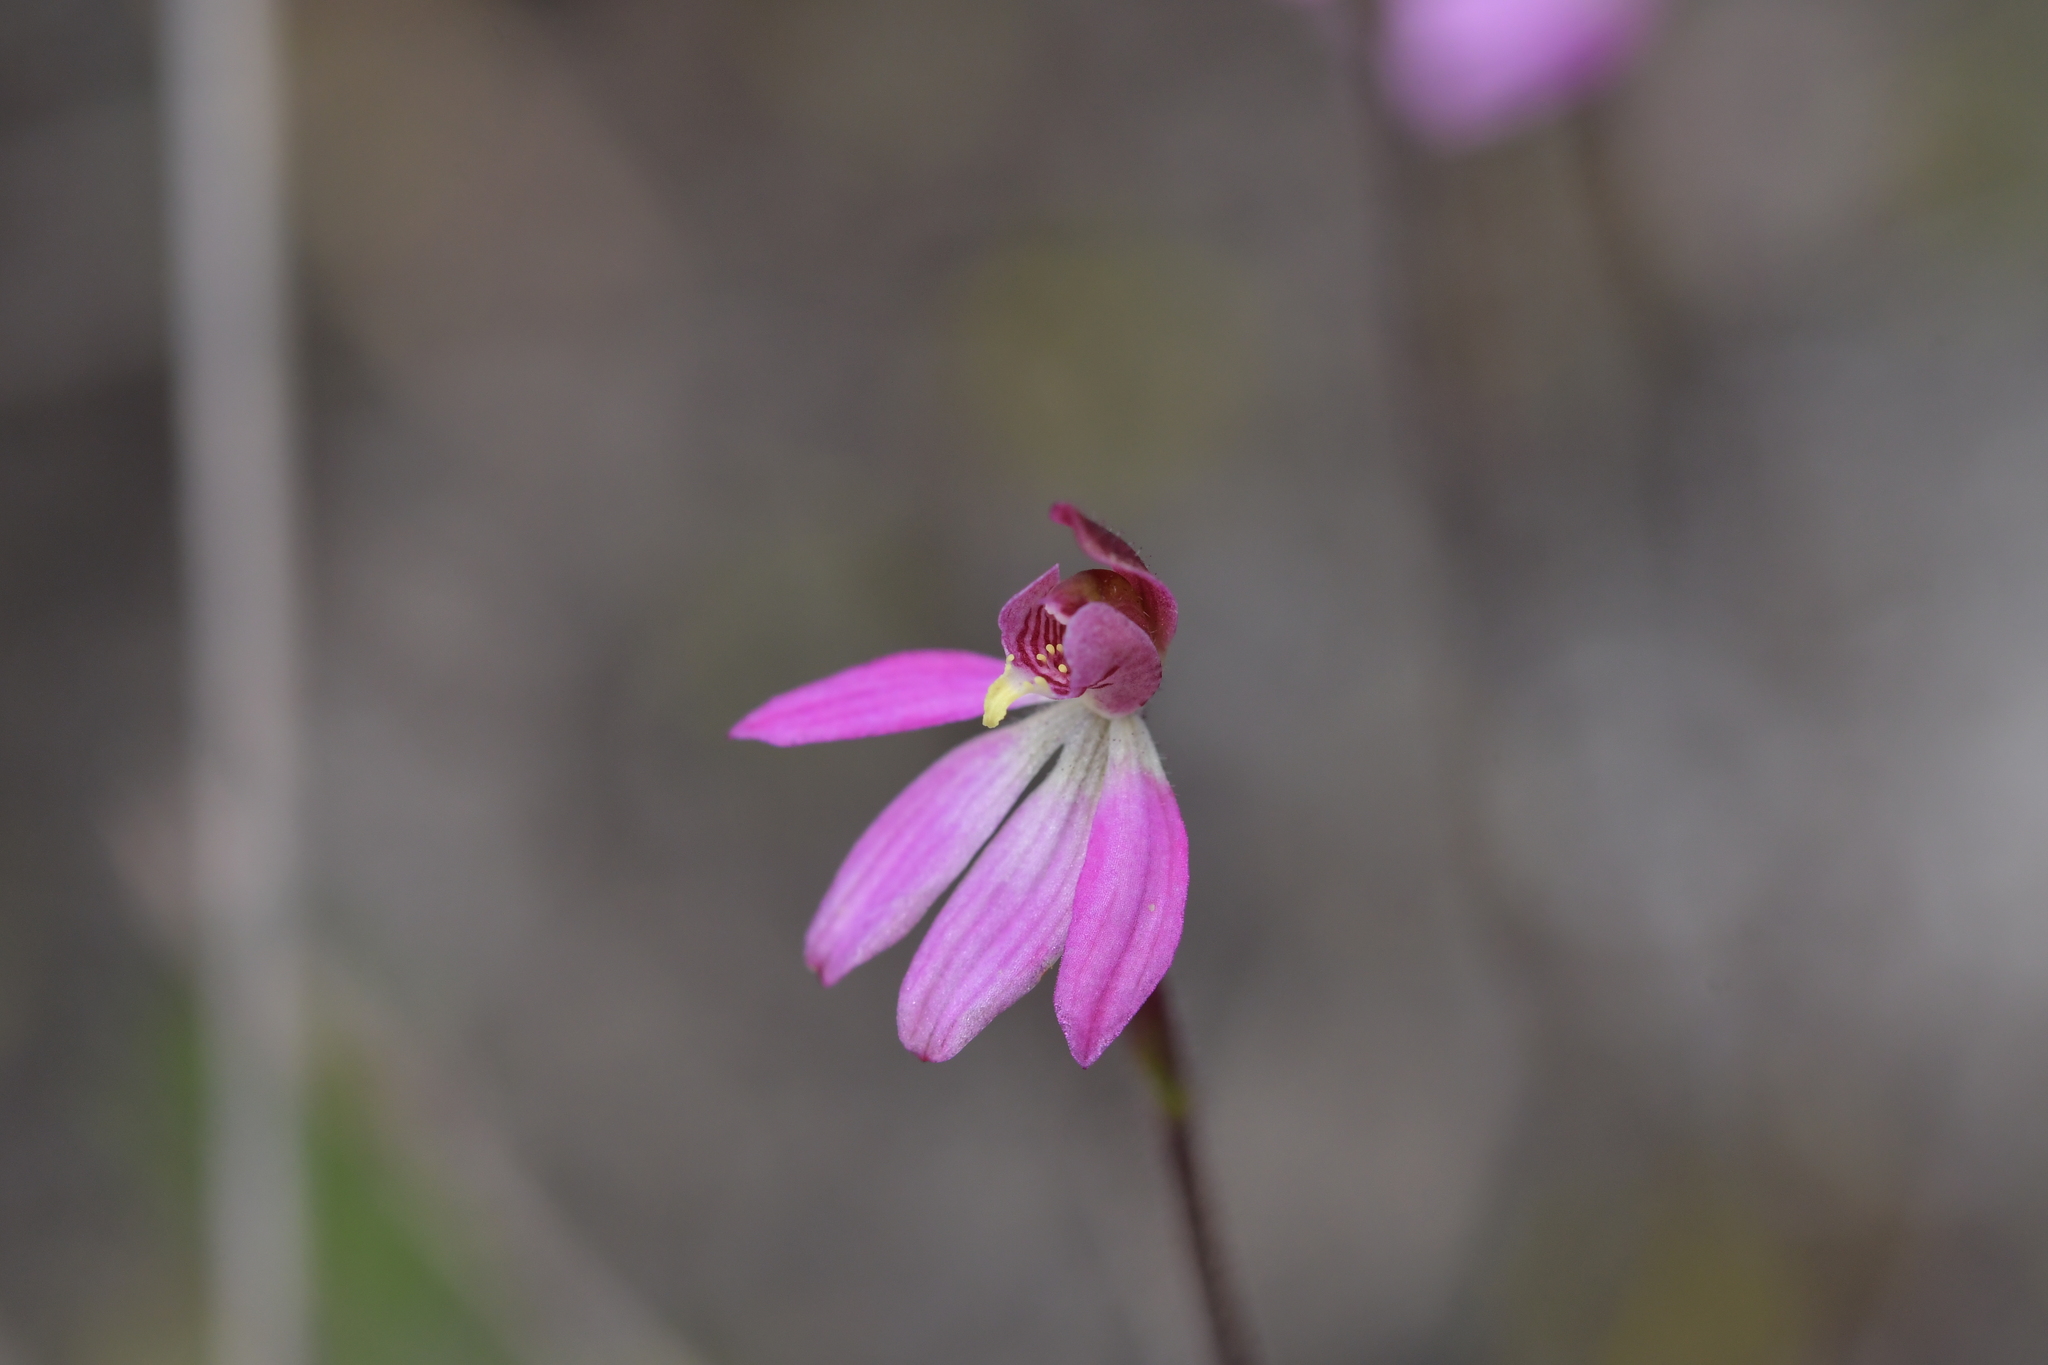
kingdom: Plantae
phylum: Tracheophyta
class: Liliopsida
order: Asparagales
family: Orchidaceae
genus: Caladenia
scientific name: Caladenia minor
